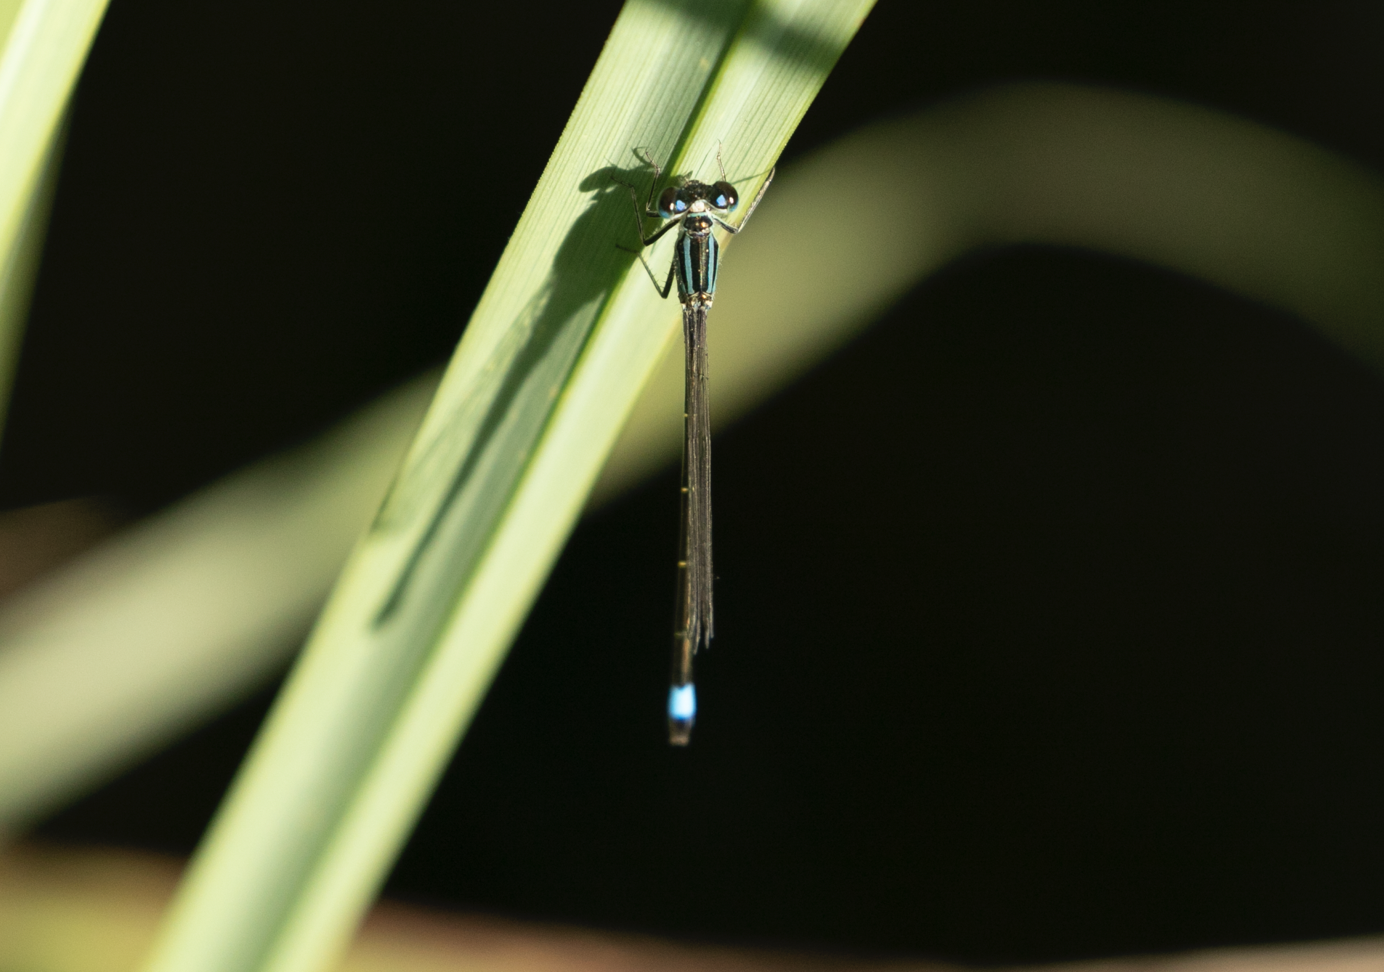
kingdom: Animalia
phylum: Arthropoda
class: Insecta
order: Odonata
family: Coenagrionidae
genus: Ischnura
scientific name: Ischnura elegans
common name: Blue-tailed damselfly
